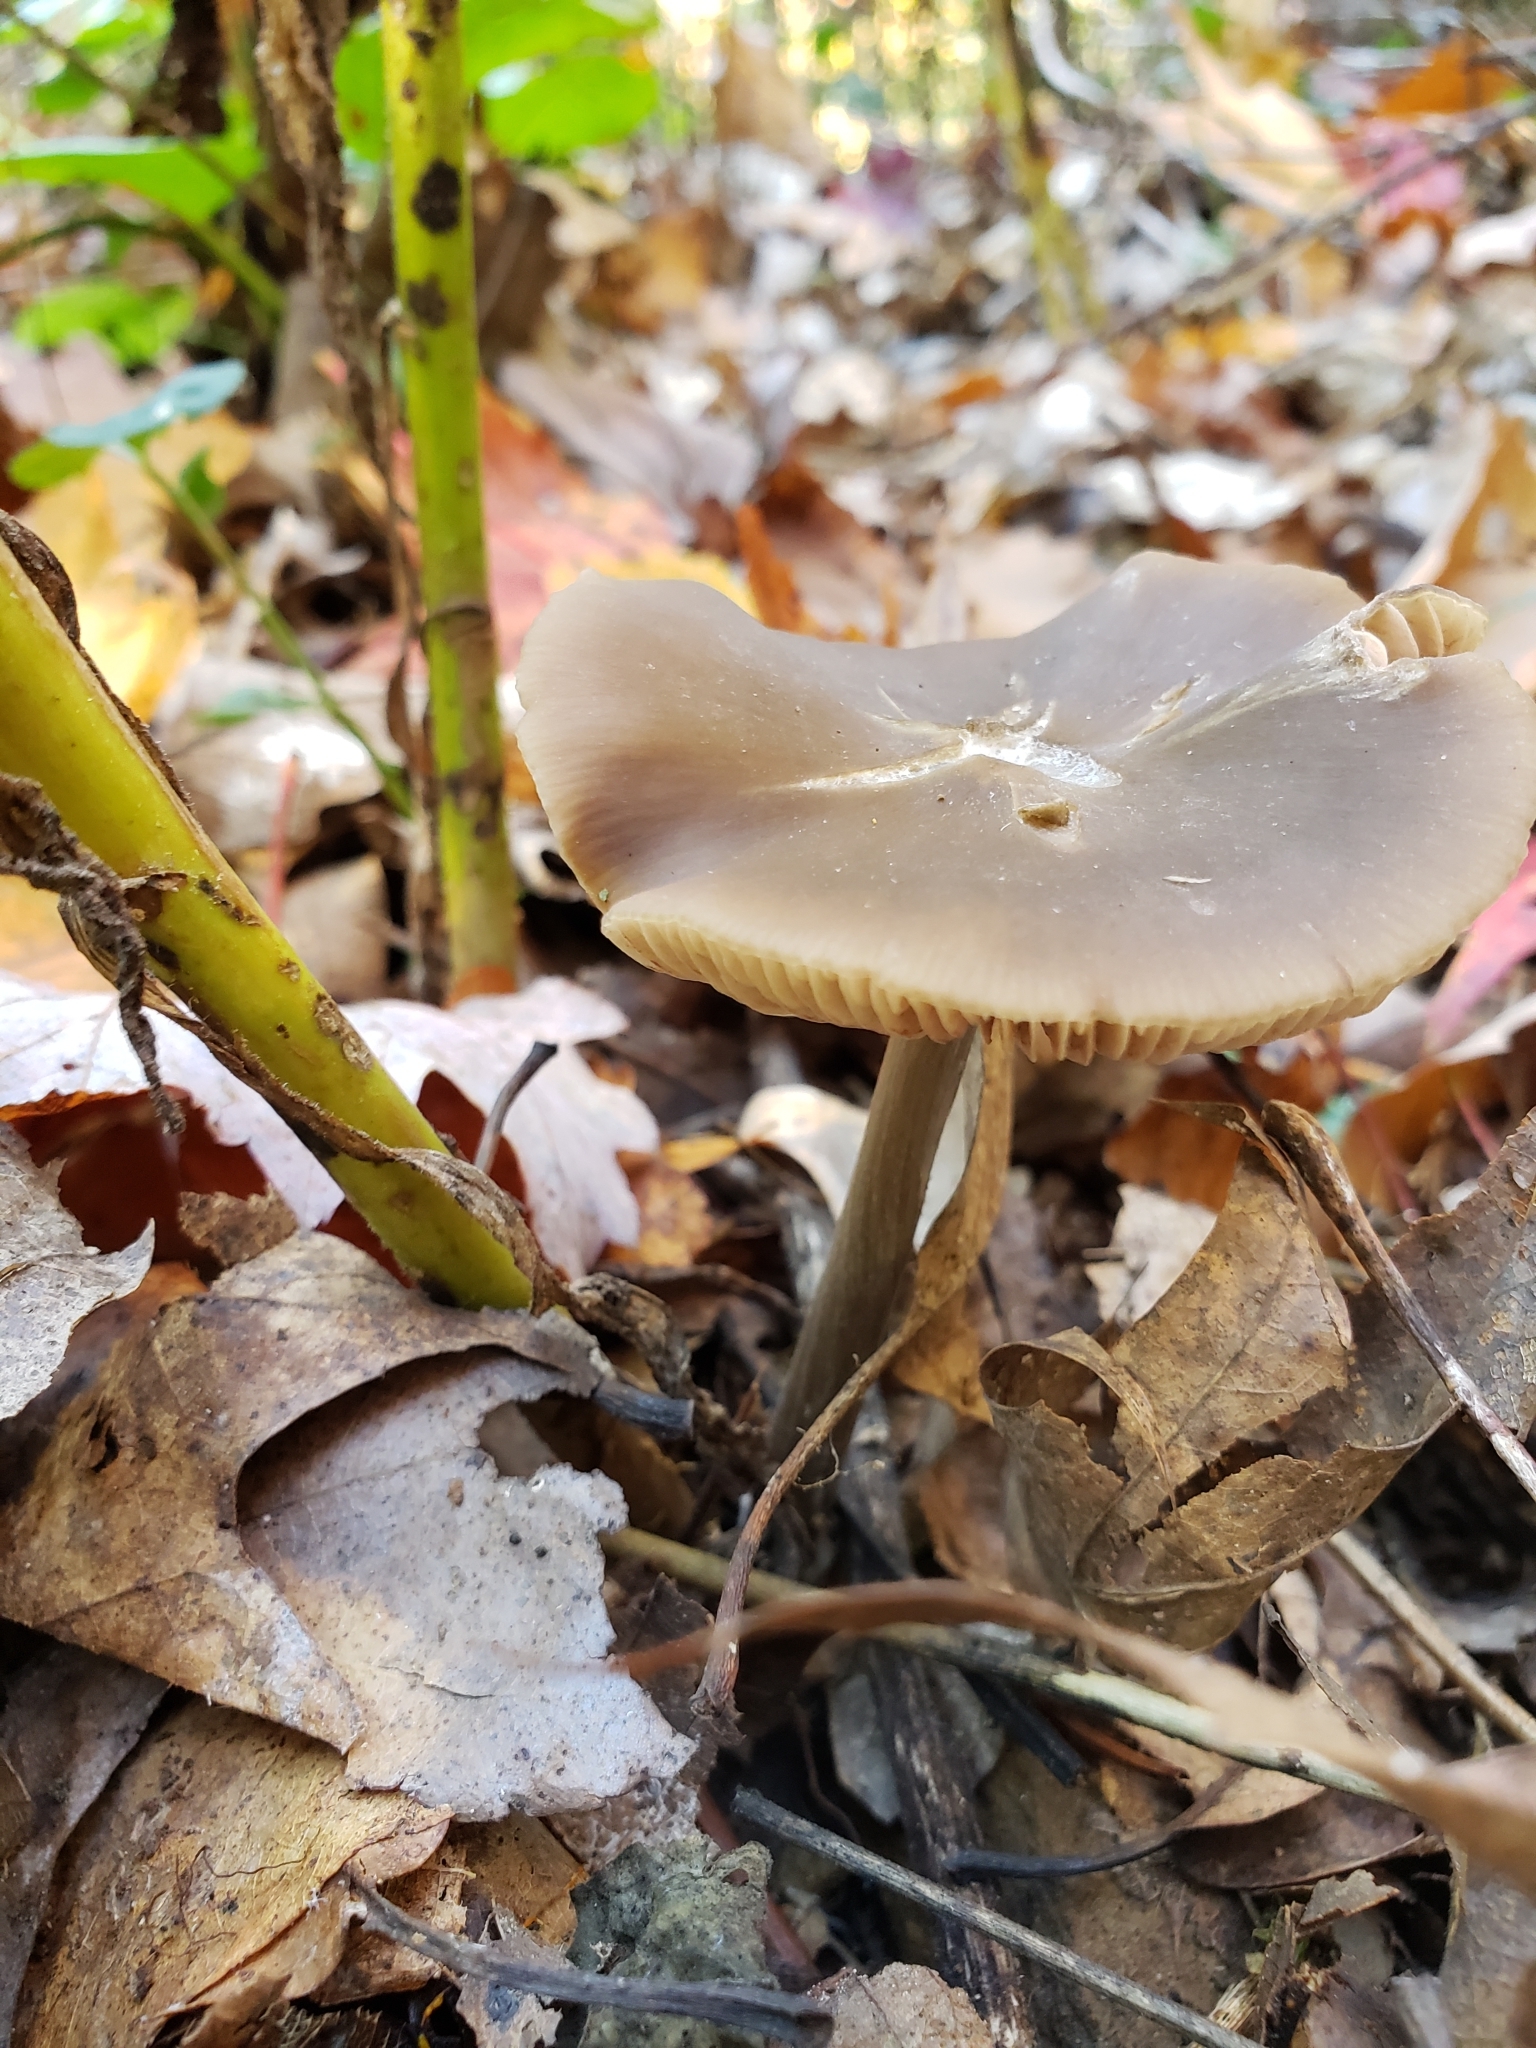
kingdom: Fungi
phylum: Basidiomycota
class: Agaricomycetes
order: Agaricales
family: Entolomataceae
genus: Entoloma
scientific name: Entoloma strictius
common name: Straight-stalked entoloma
